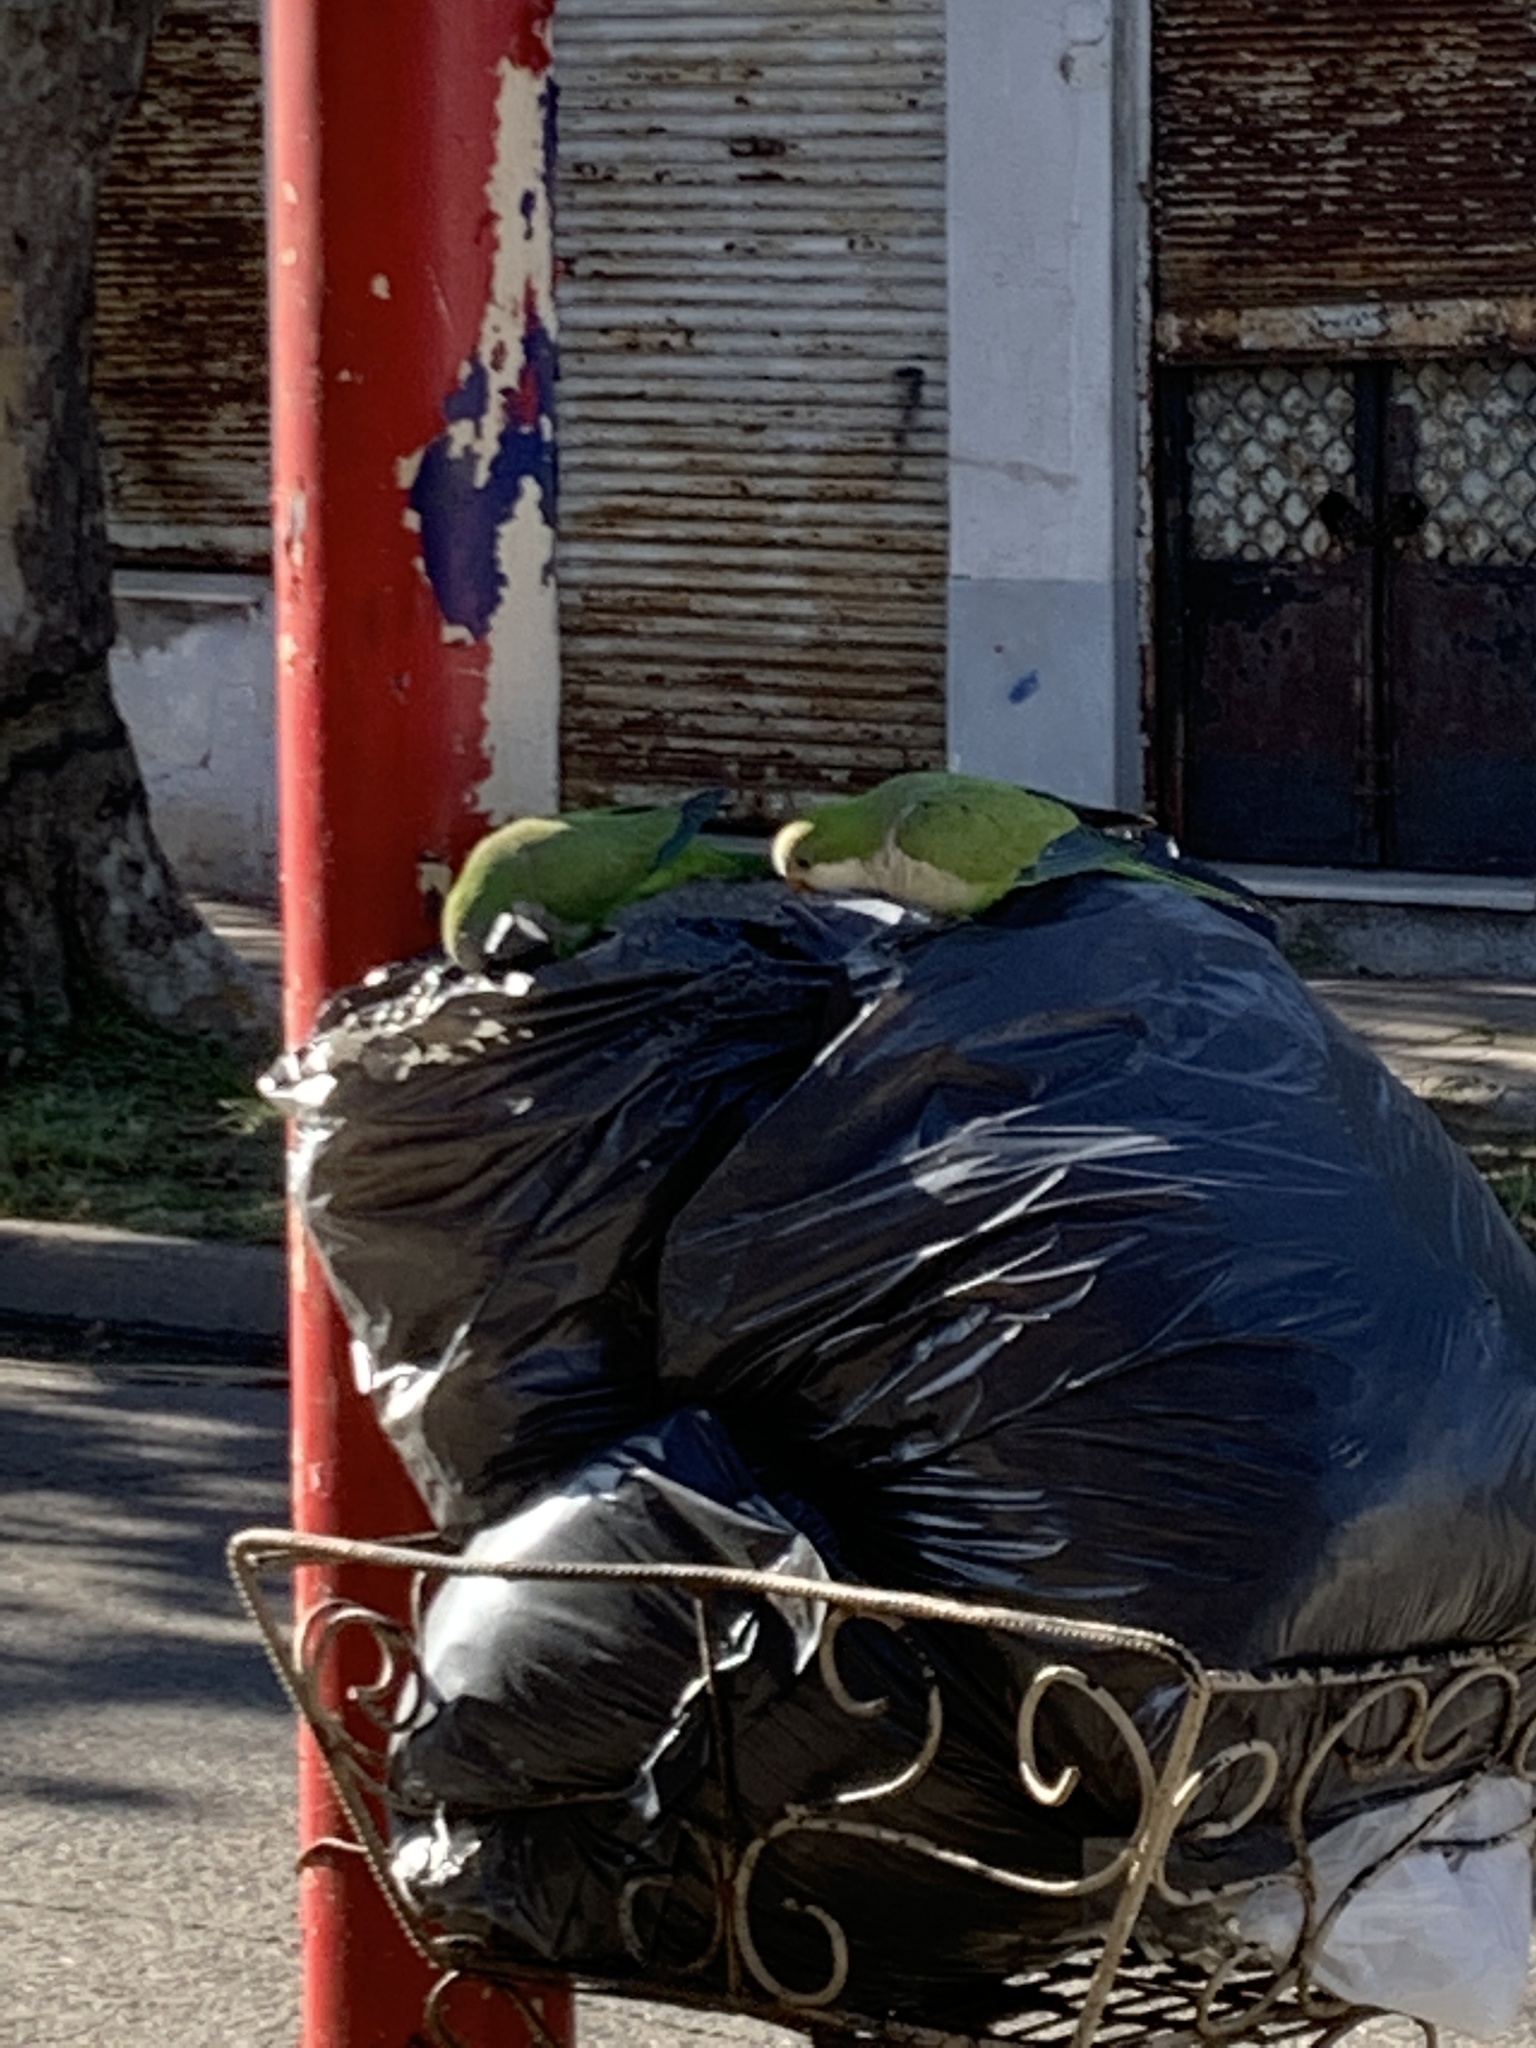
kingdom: Animalia
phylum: Chordata
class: Aves
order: Psittaciformes
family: Psittacidae
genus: Myiopsitta
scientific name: Myiopsitta monachus
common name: Monk parakeet
